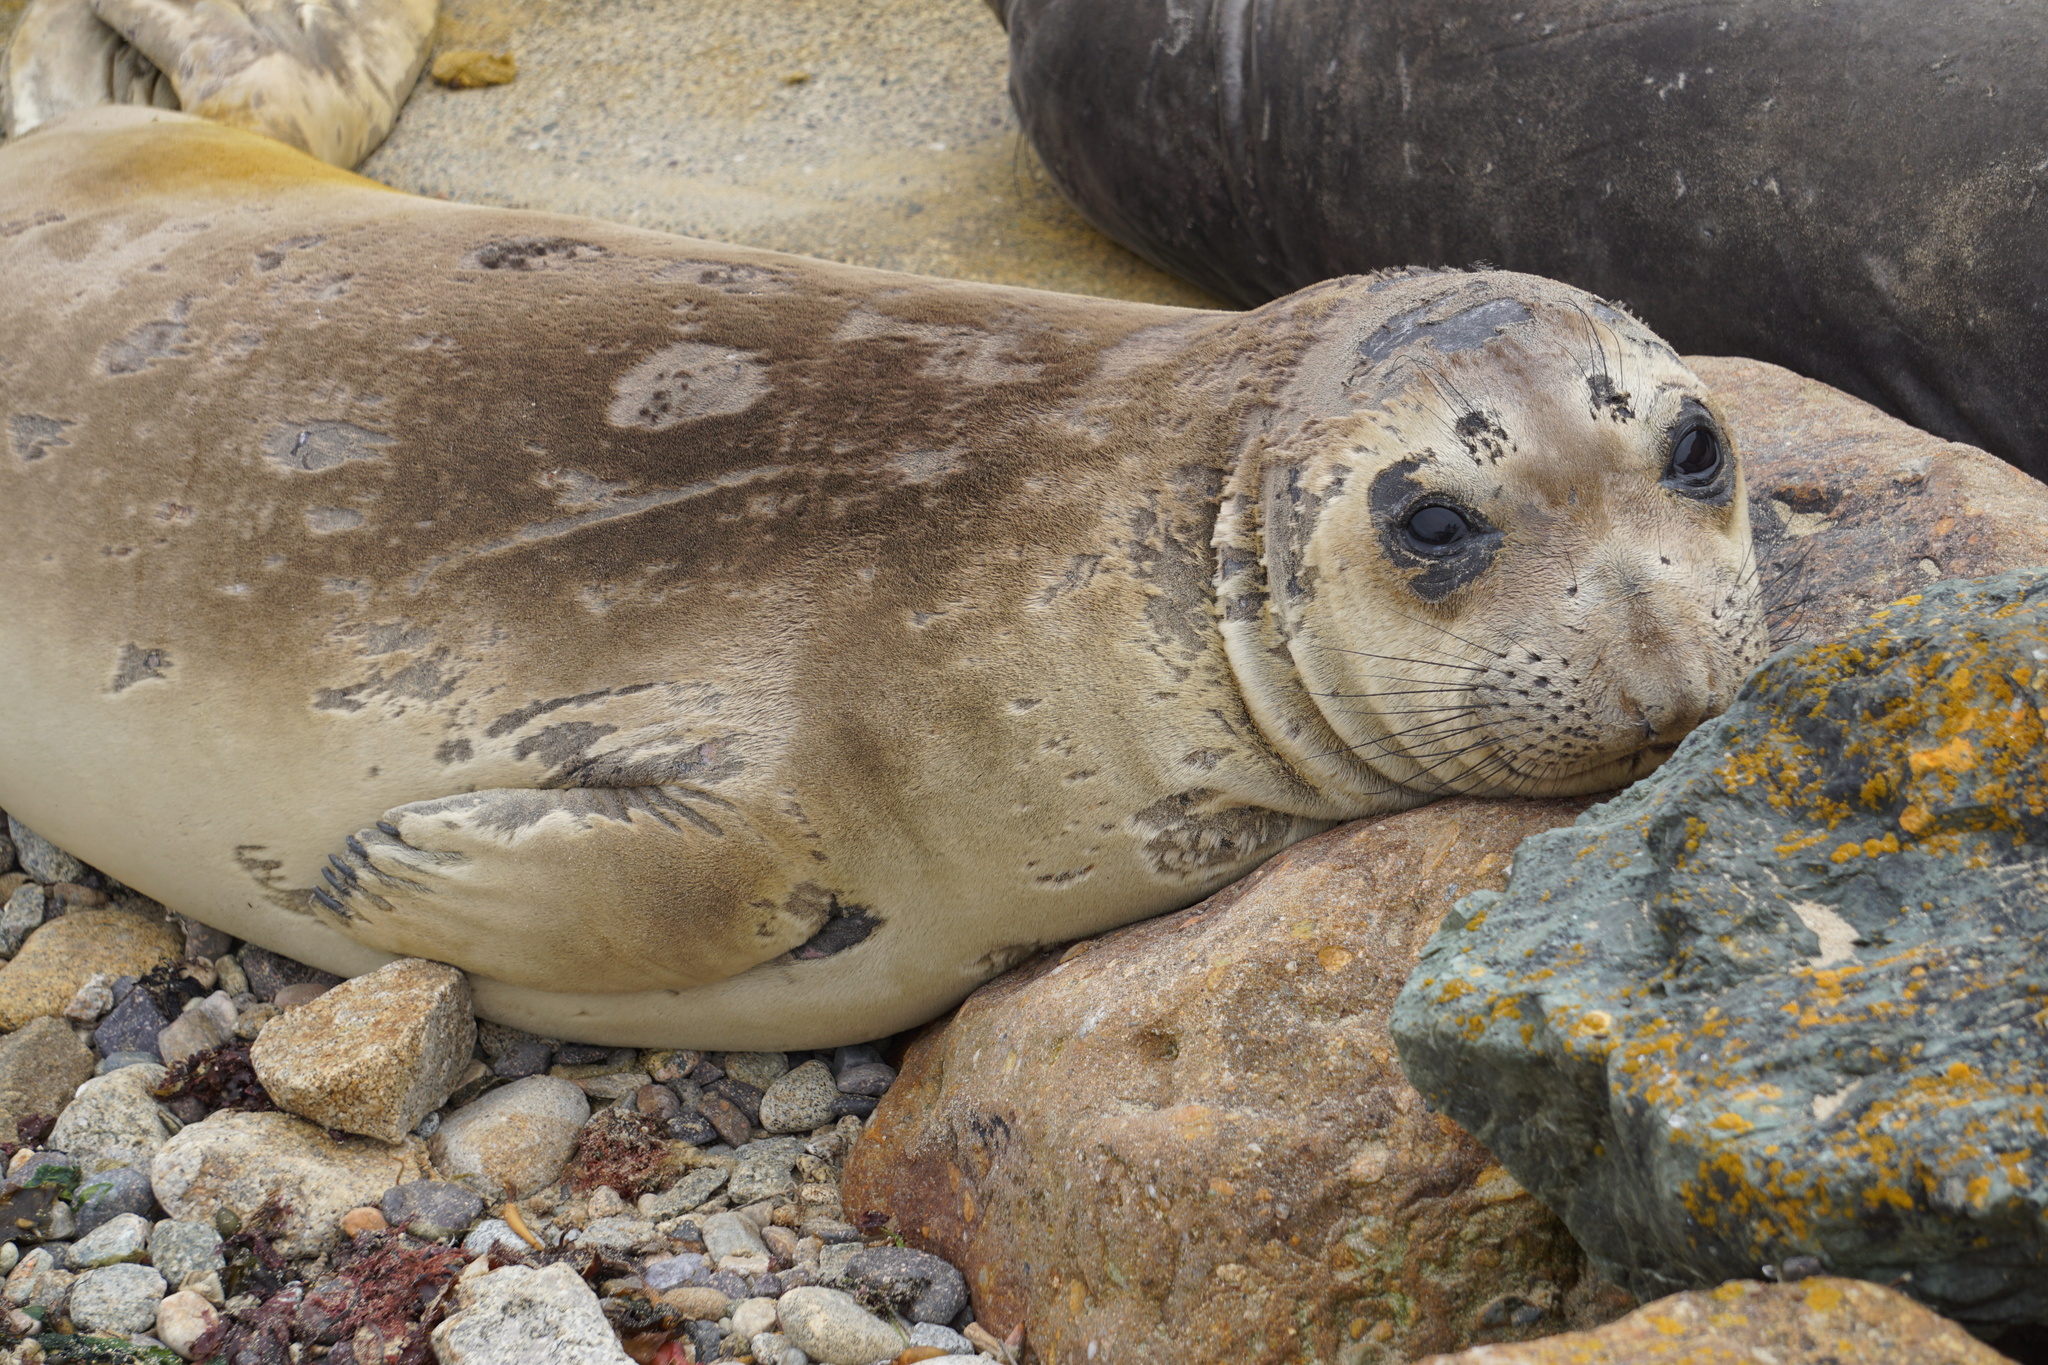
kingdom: Animalia
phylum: Chordata
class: Mammalia
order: Carnivora
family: Phocidae
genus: Mirounga
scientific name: Mirounga angustirostris
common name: Northern elephant seal
